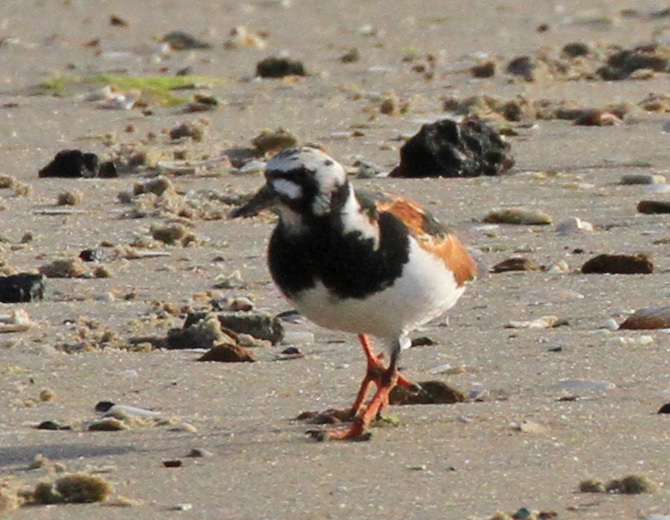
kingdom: Animalia
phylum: Chordata
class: Aves
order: Charadriiformes
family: Scolopacidae
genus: Arenaria
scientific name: Arenaria interpres
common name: Ruddy turnstone
